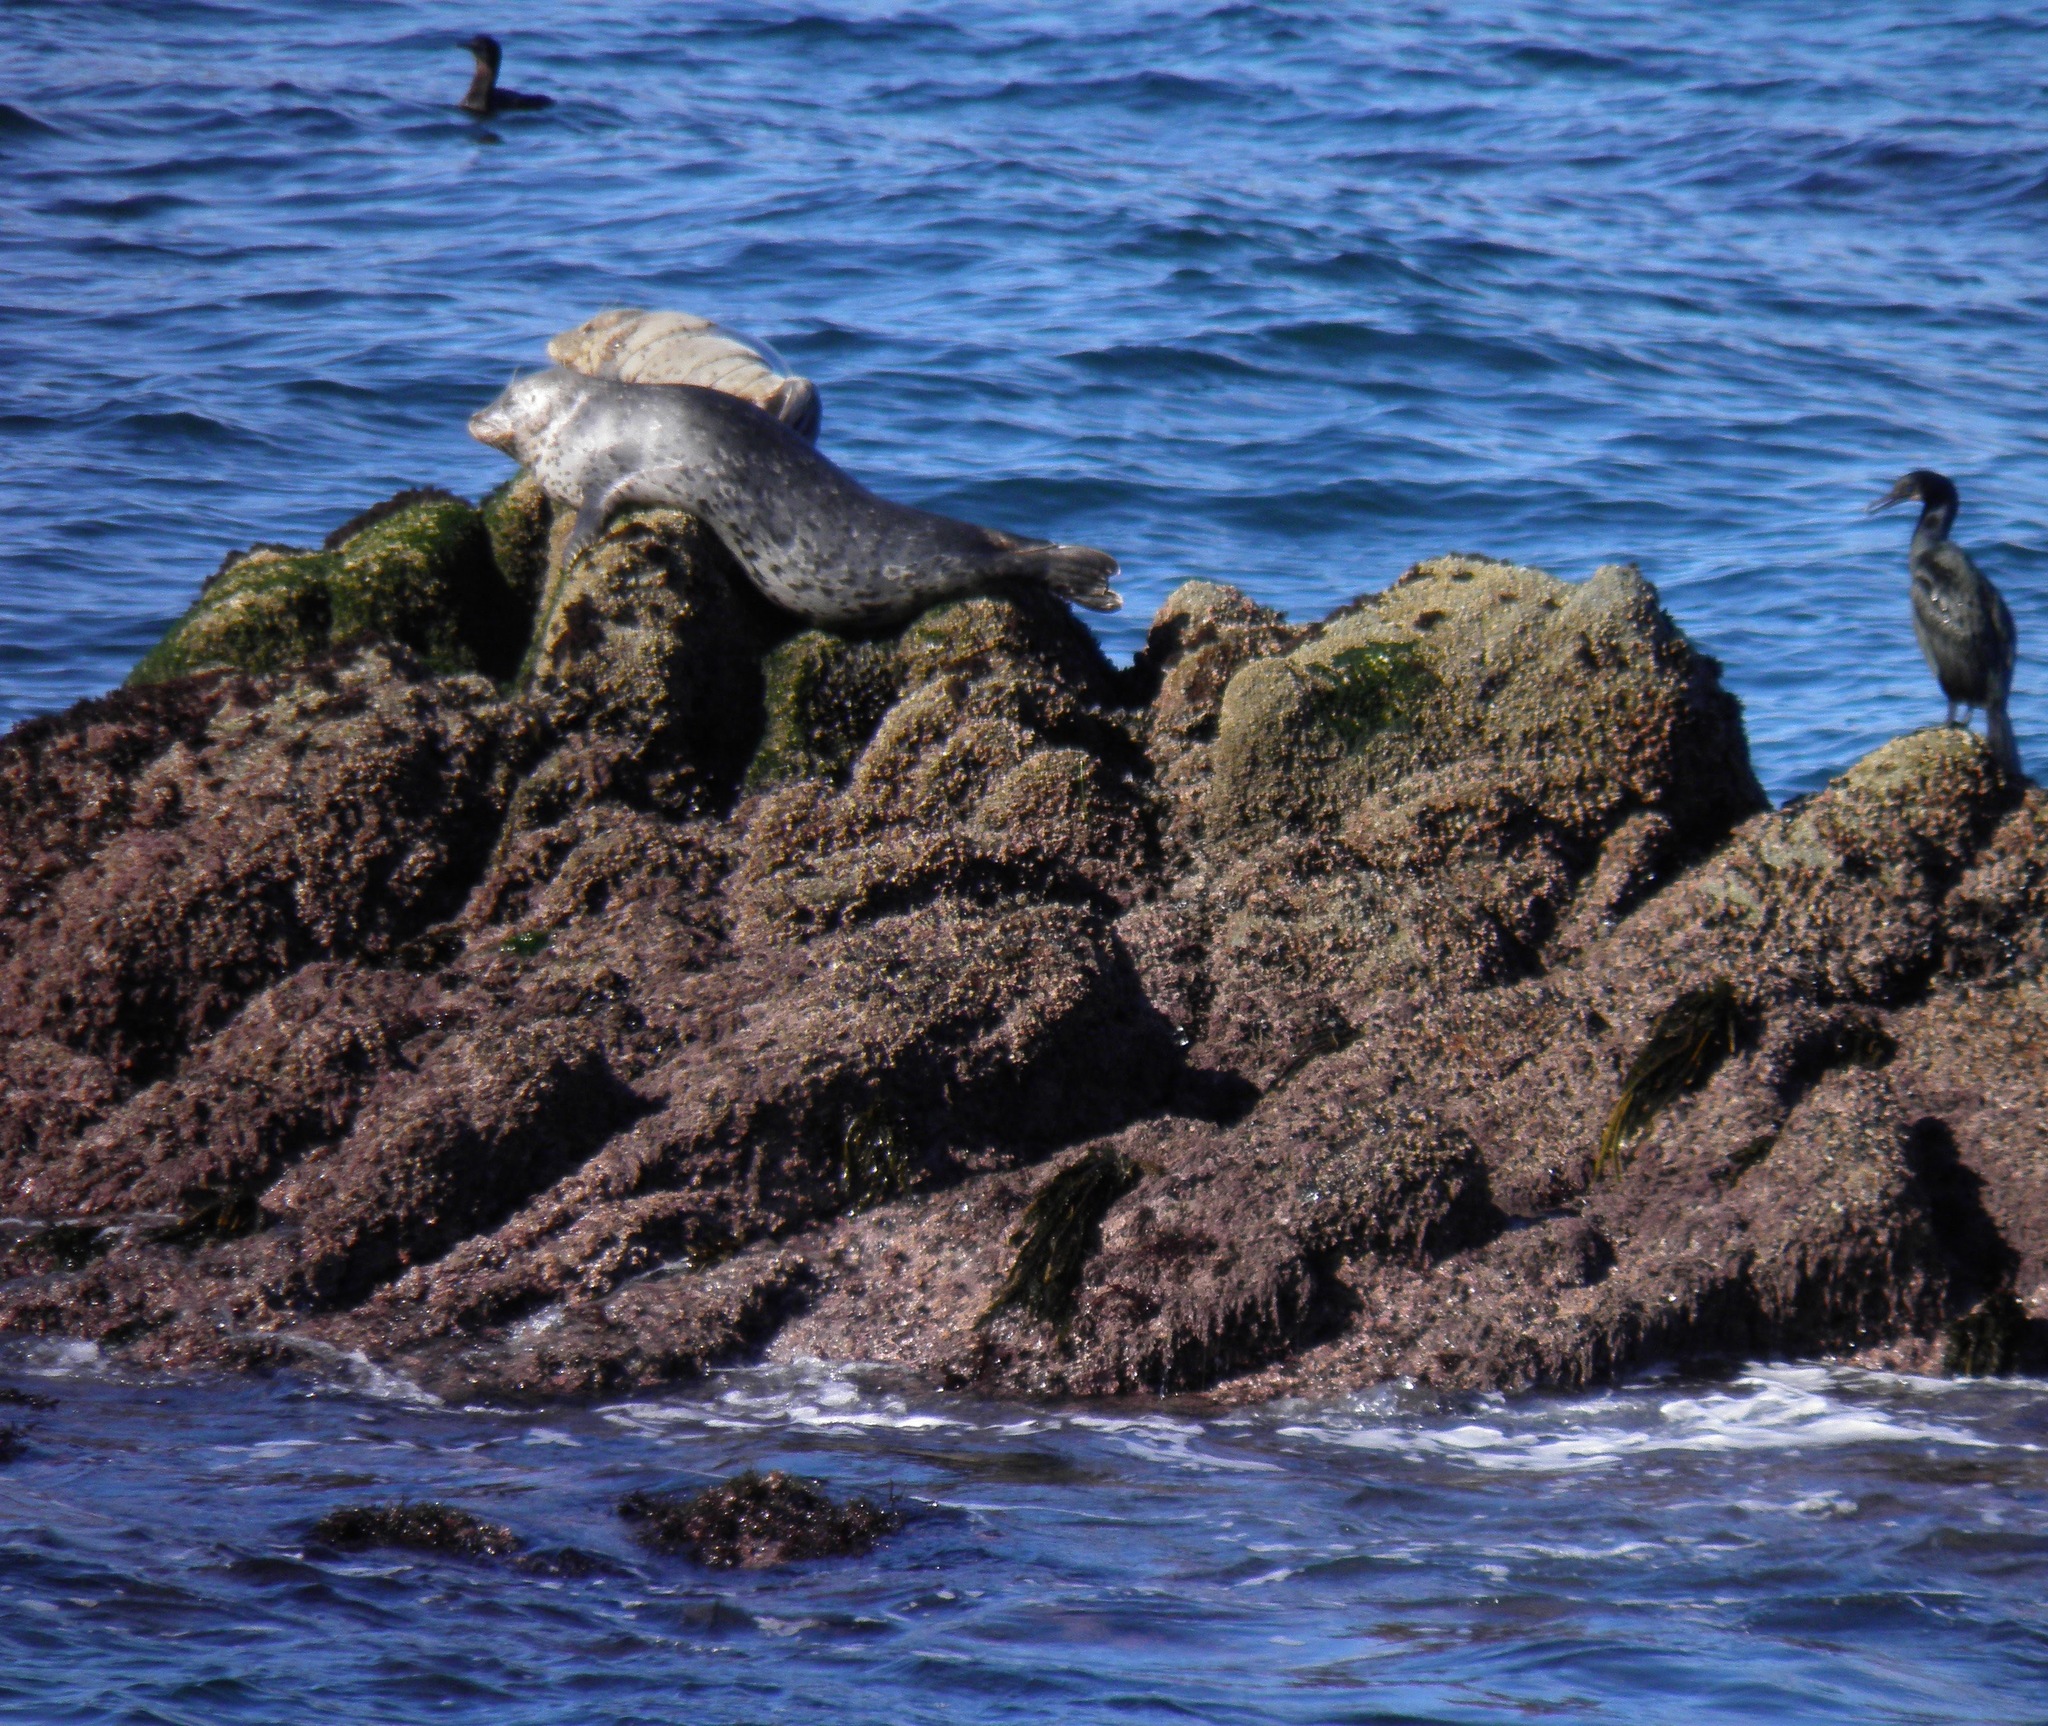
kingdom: Animalia
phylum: Chordata
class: Mammalia
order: Carnivora
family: Phocidae
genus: Phoca
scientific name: Phoca vitulina
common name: Harbor seal
